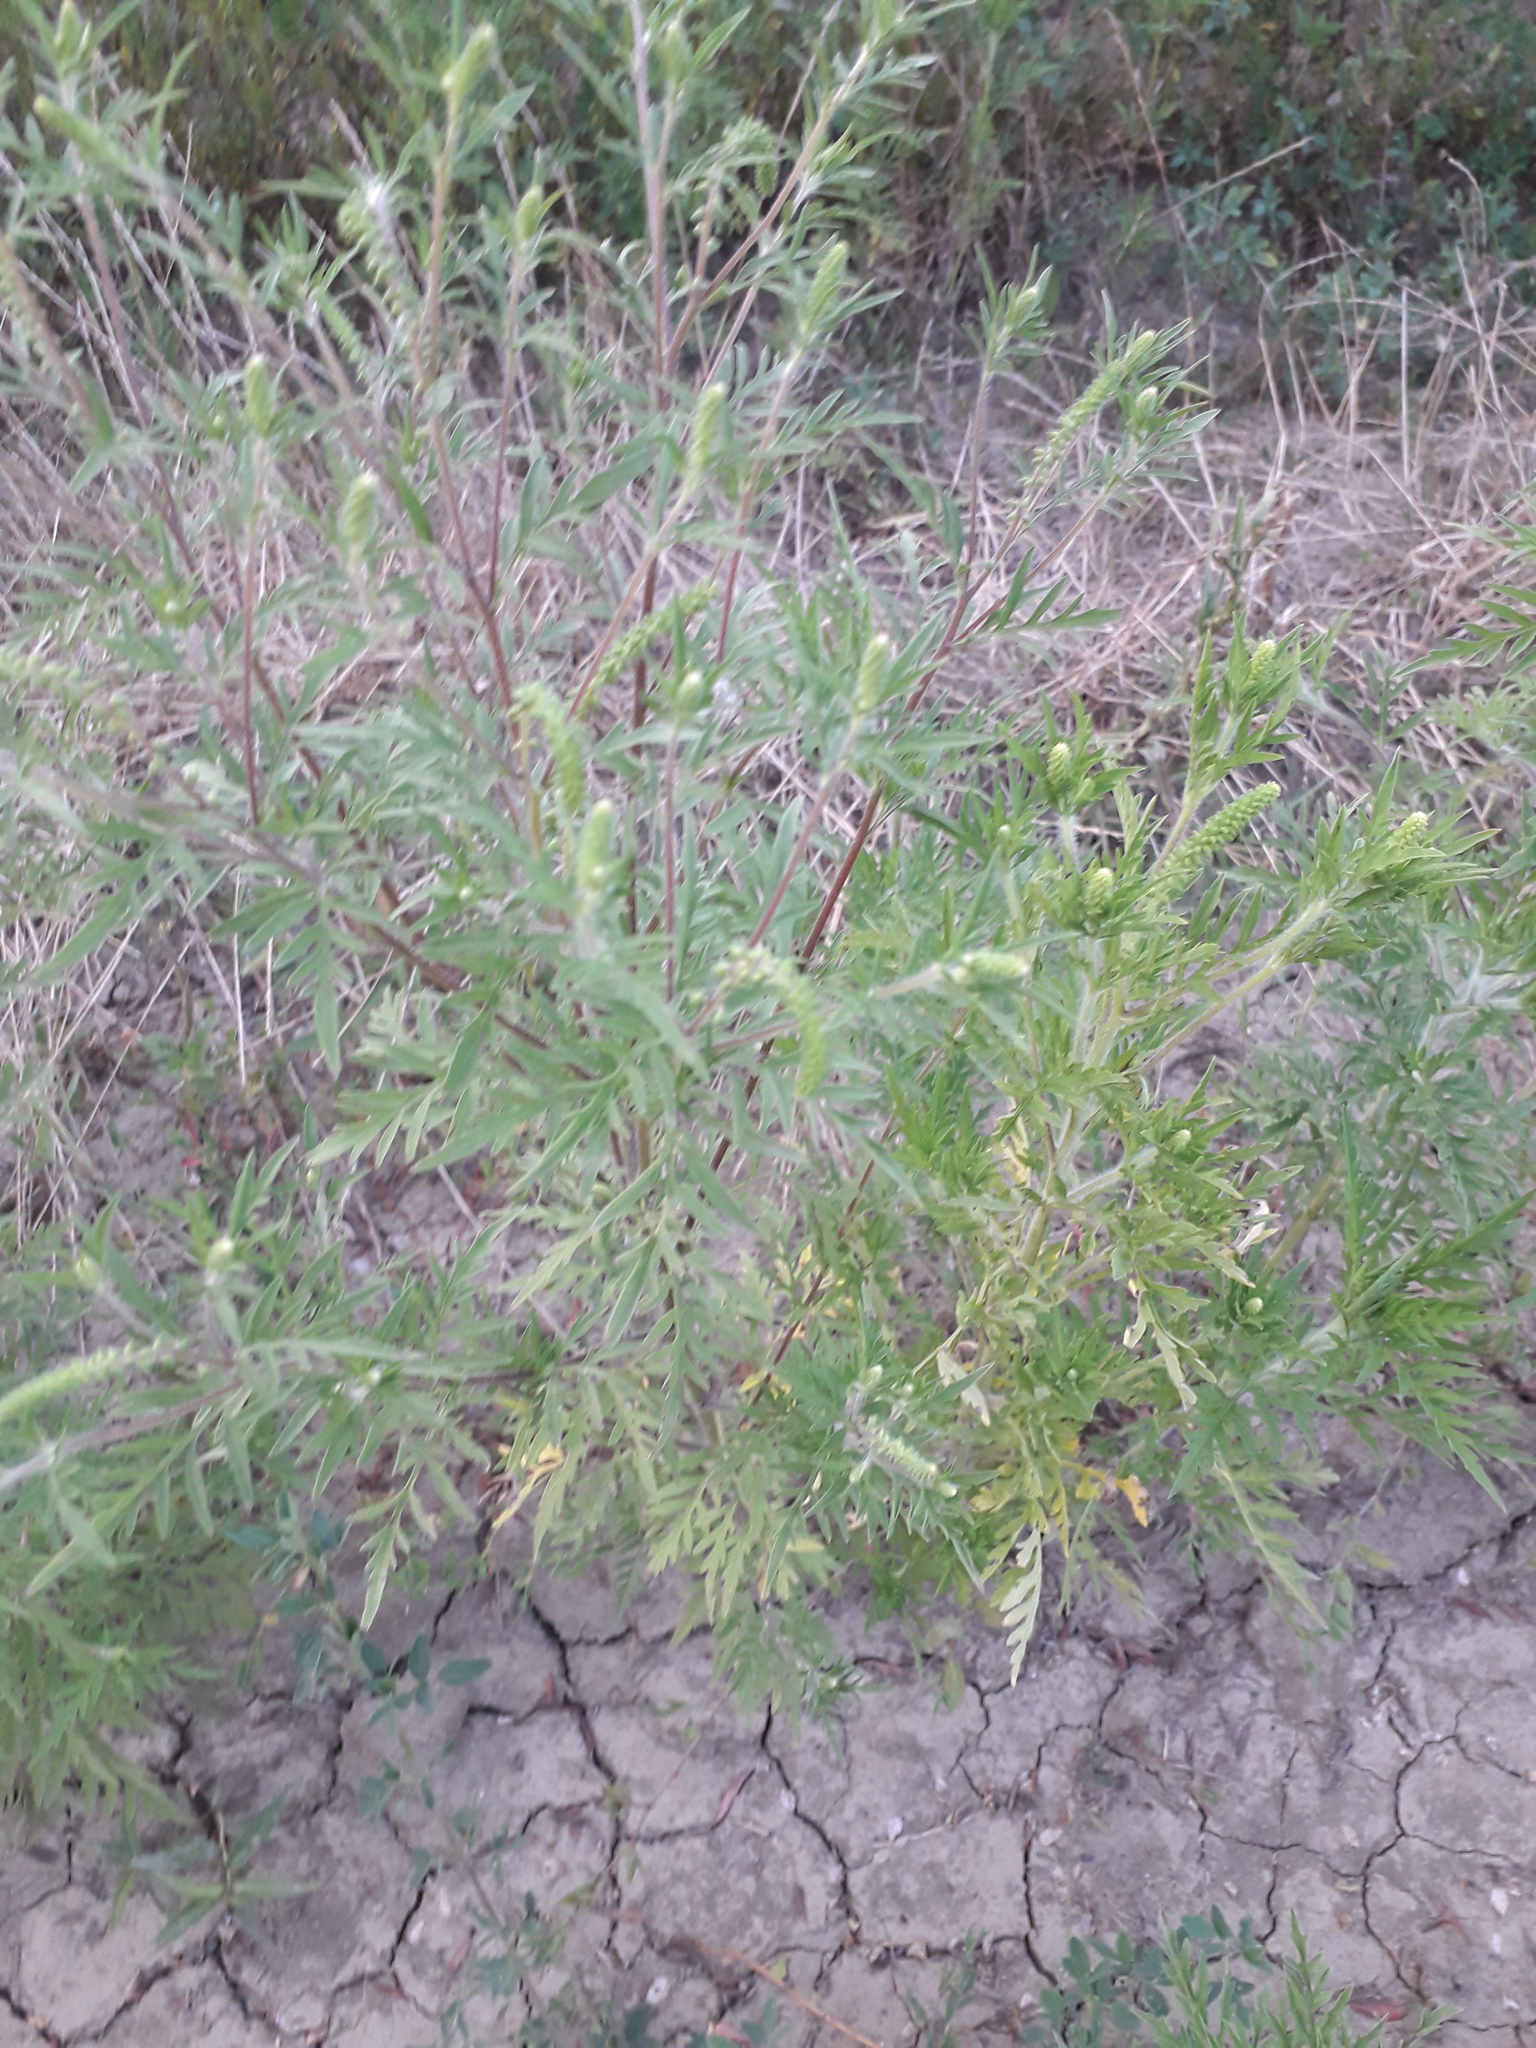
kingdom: Plantae
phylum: Tracheophyta
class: Magnoliopsida
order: Asterales
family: Asteraceae
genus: Ambrosia
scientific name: Ambrosia artemisiifolia
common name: Annual ragweed
